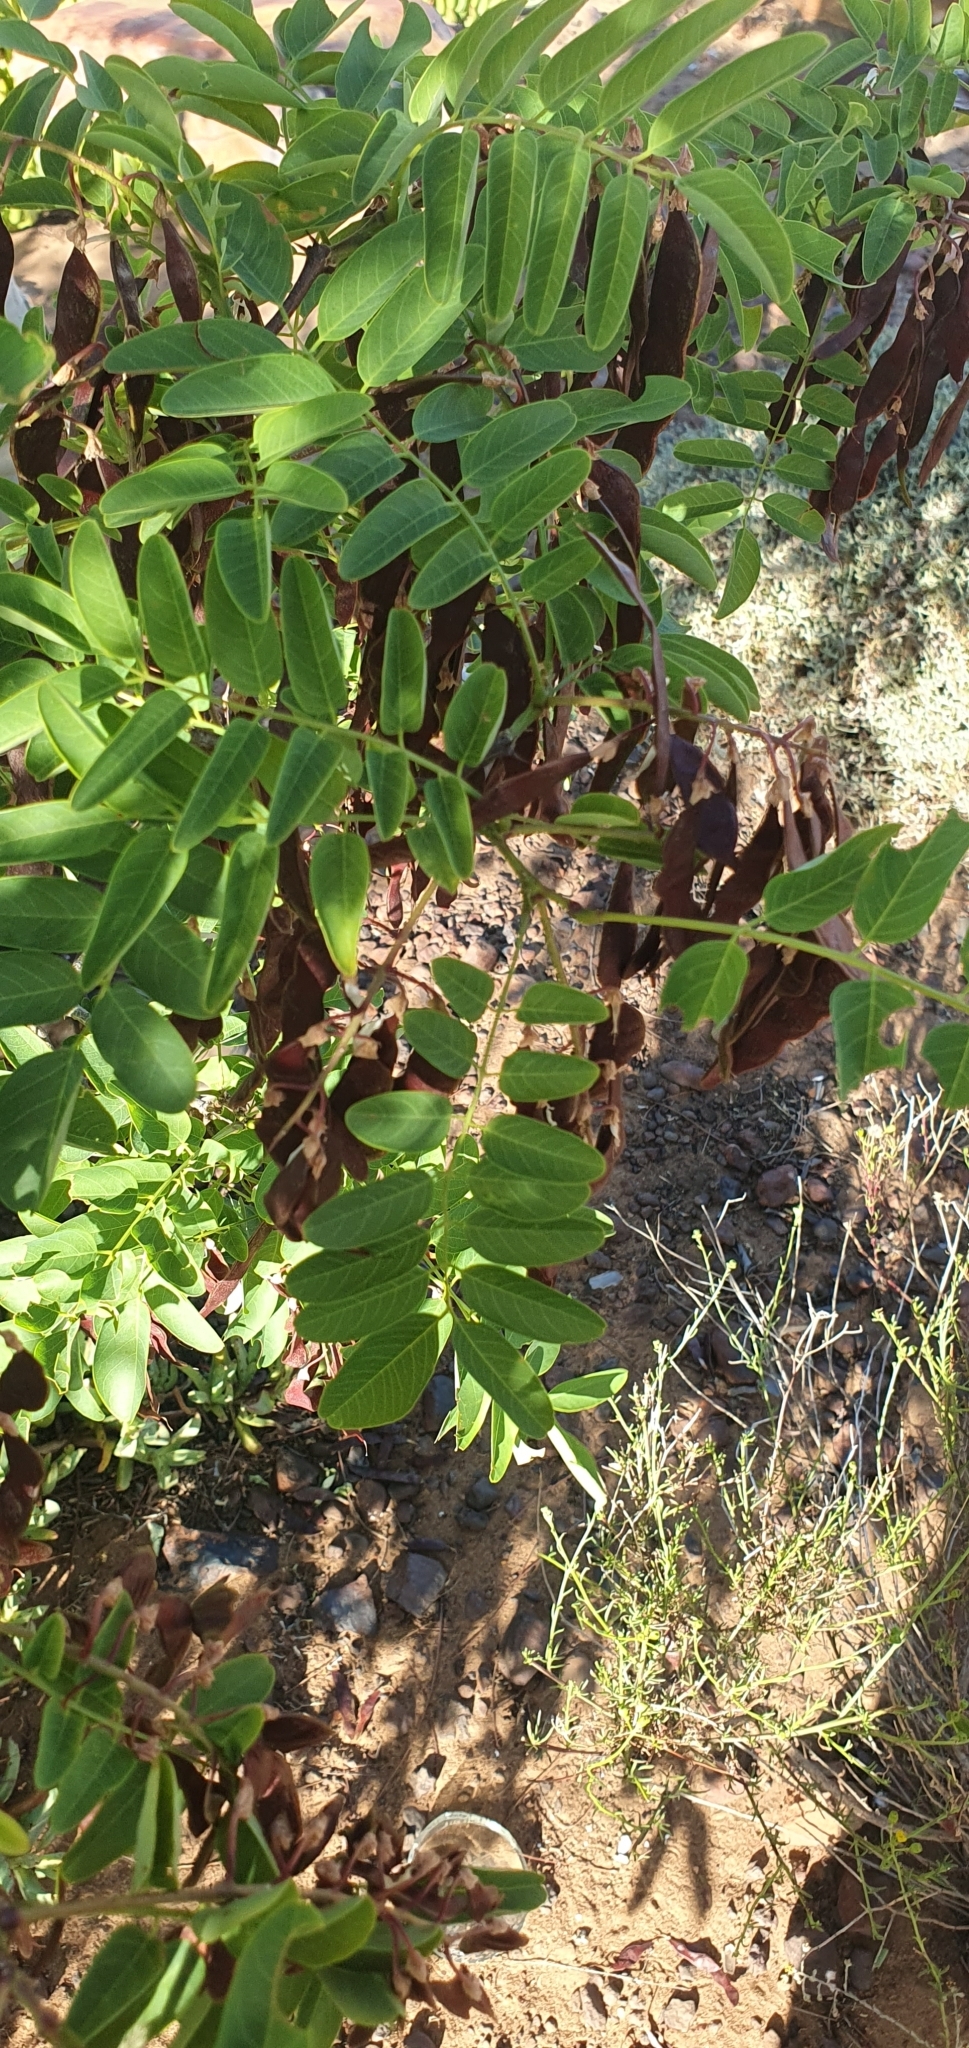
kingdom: Plantae
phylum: Tracheophyta
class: Magnoliopsida
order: Fabales
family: Fabaceae
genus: Robinia
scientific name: Robinia pseudoacacia
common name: Black locust
